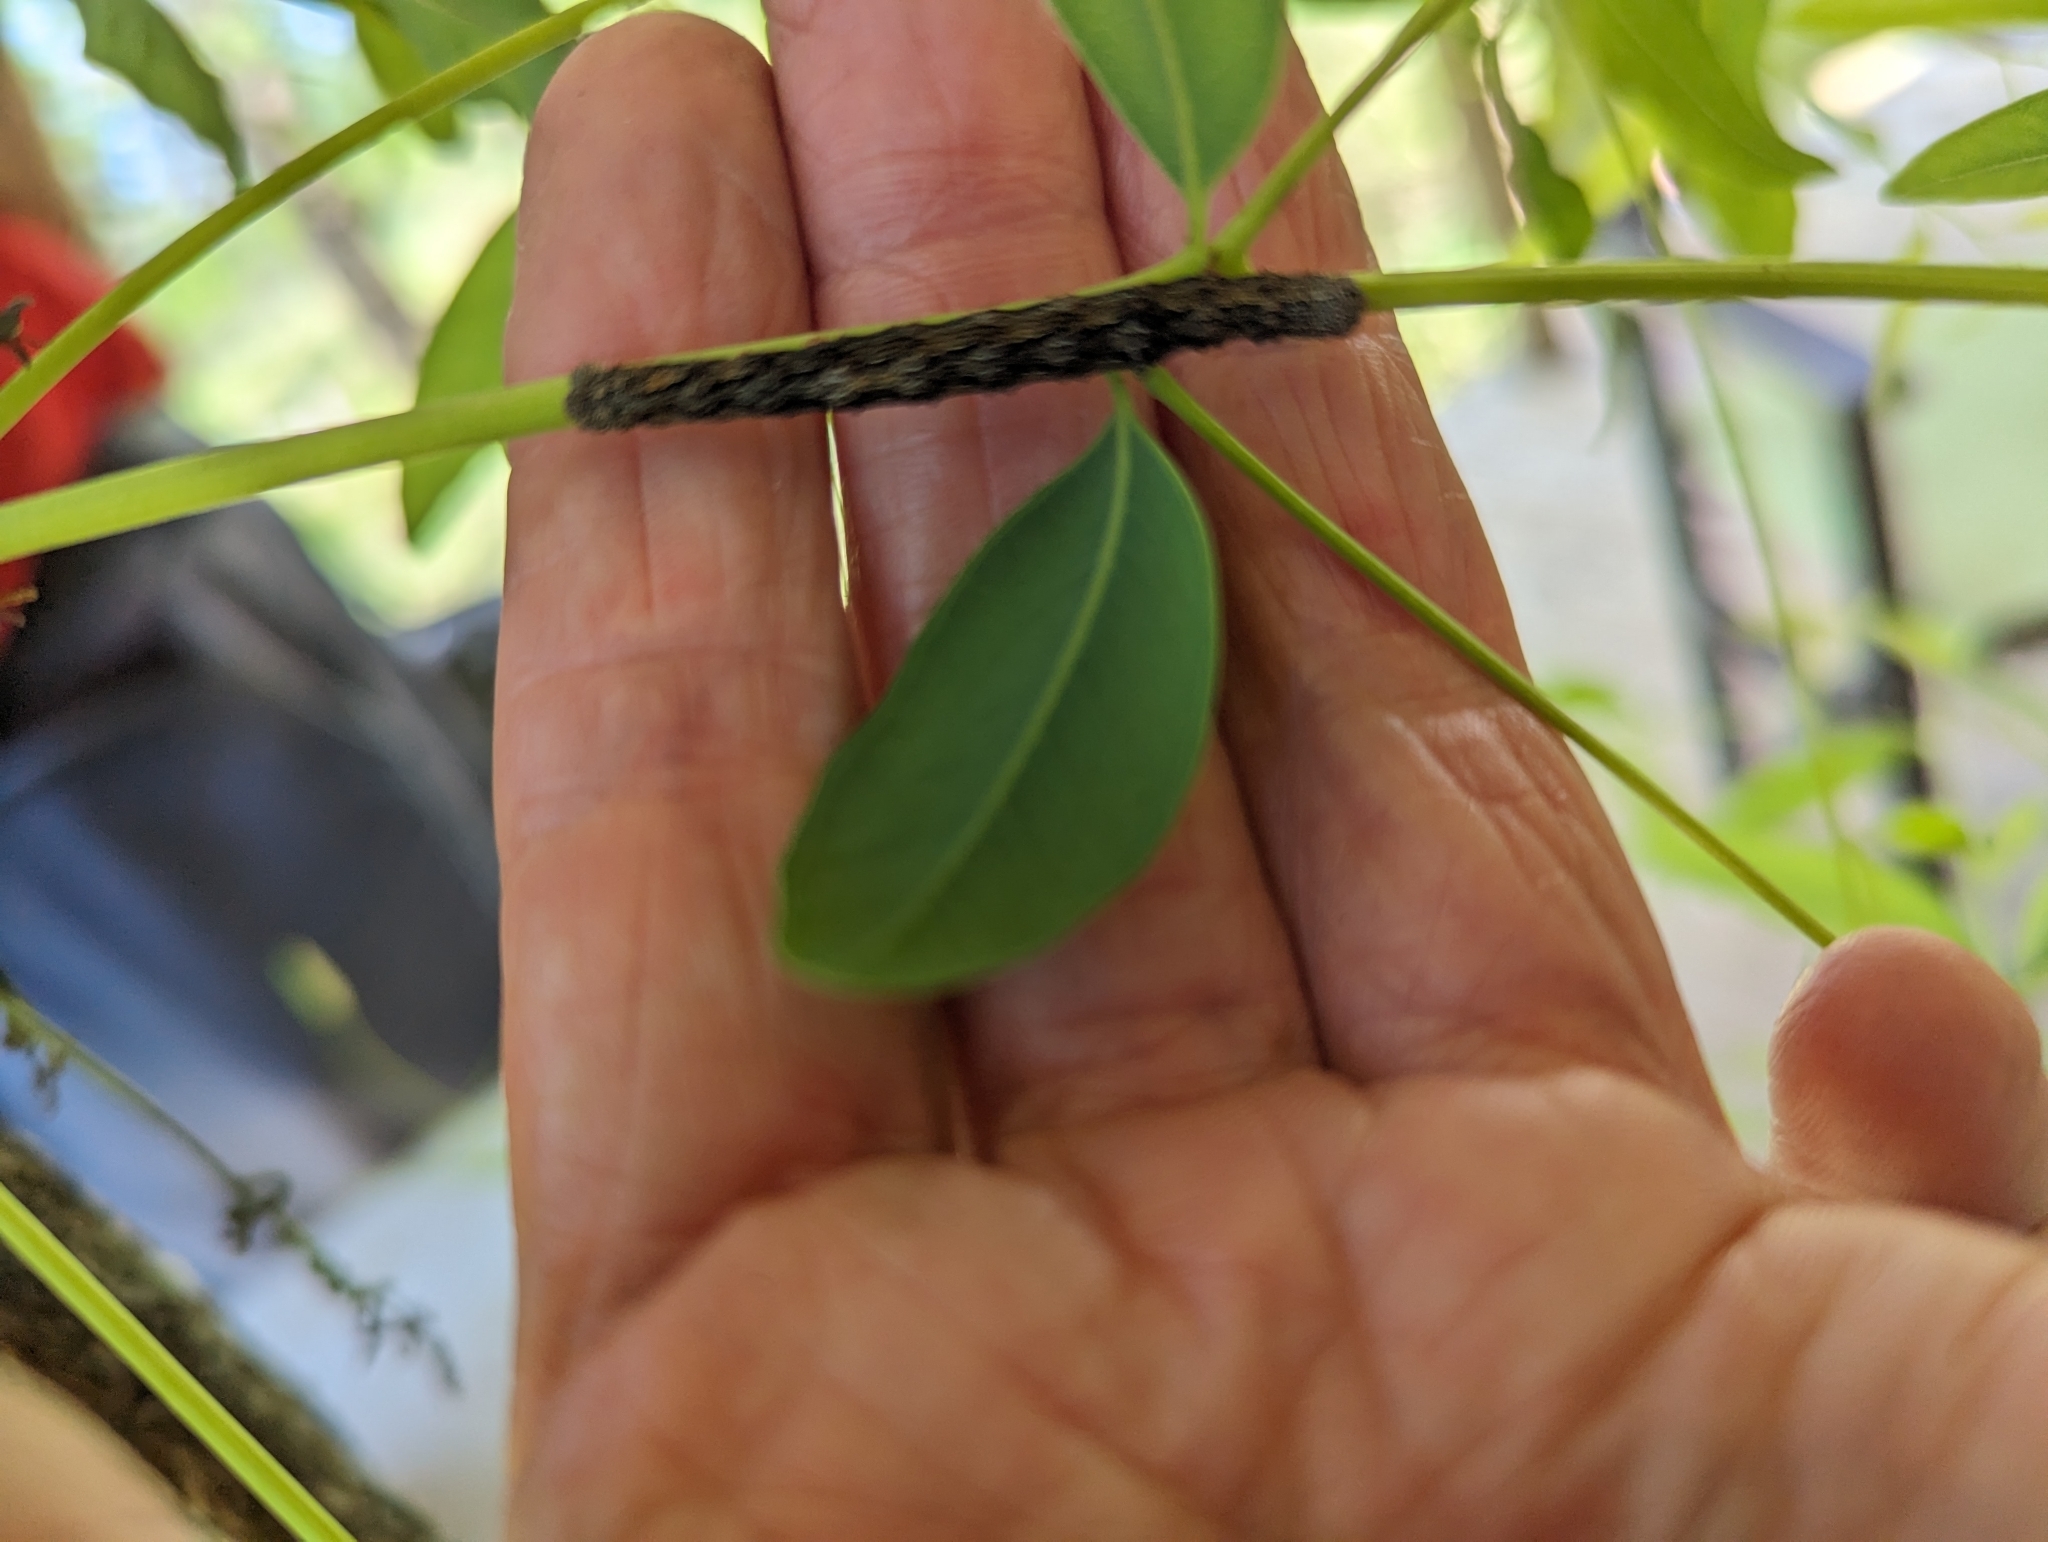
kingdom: Animalia
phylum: Arthropoda
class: Insecta
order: Lepidoptera
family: Geometridae
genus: Antictenia
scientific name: Antictenia punctunculus
